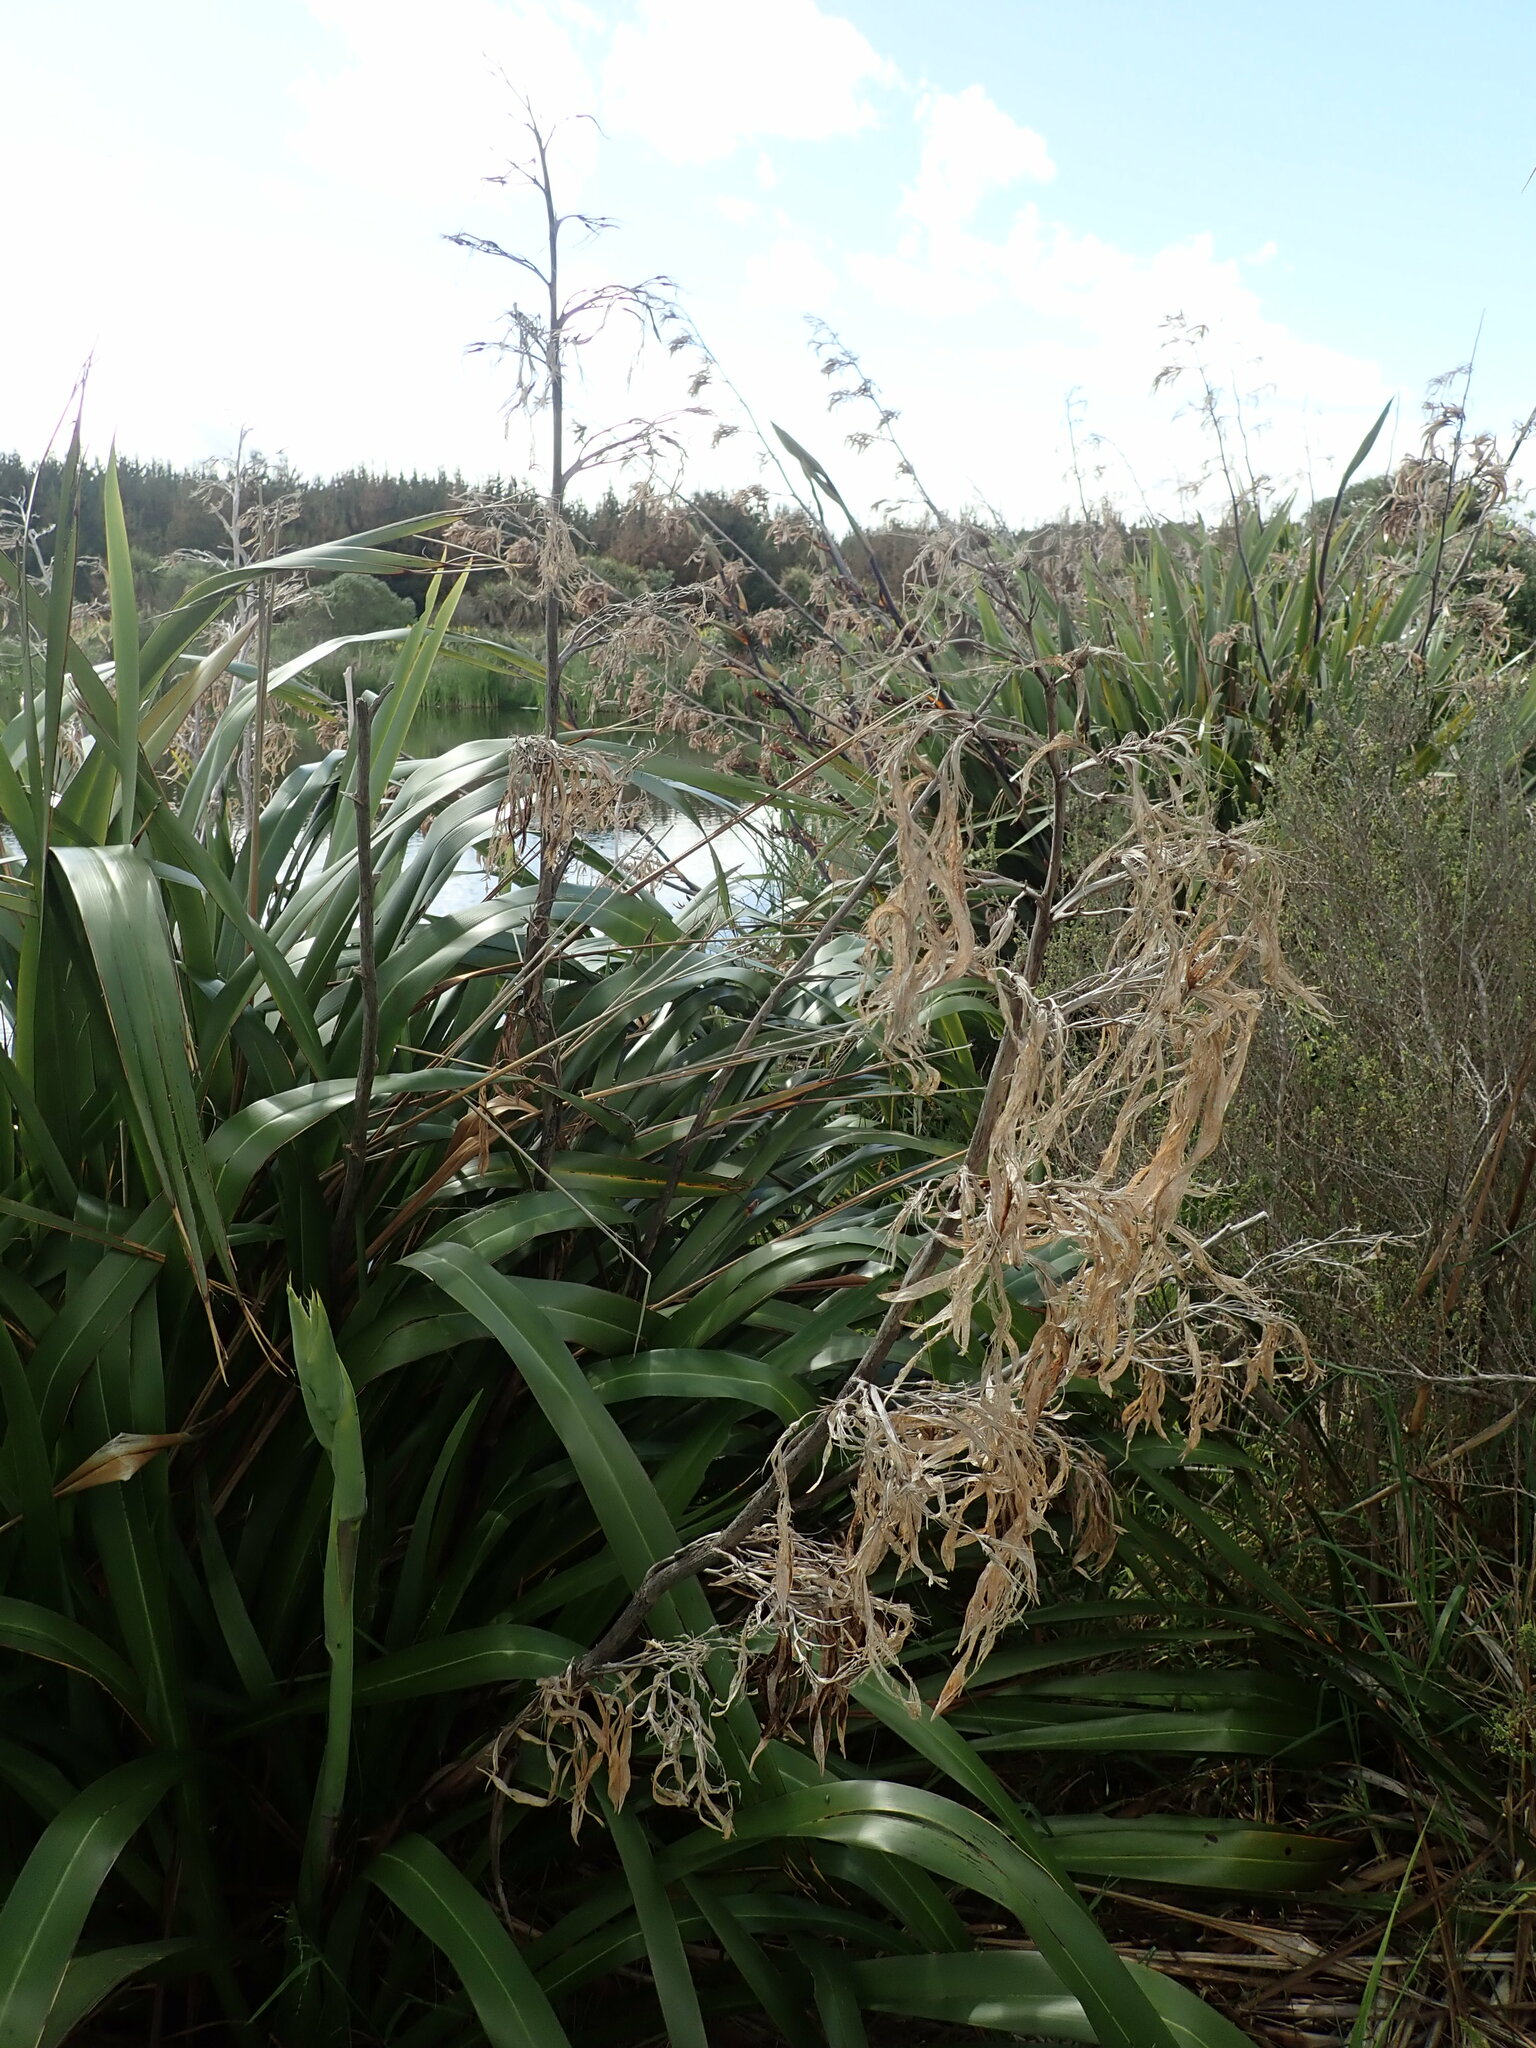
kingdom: Plantae
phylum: Tracheophyta
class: Liliopsida
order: Asparagales
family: Asphodelaceae
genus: Phormium
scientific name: Phormium colensoi
